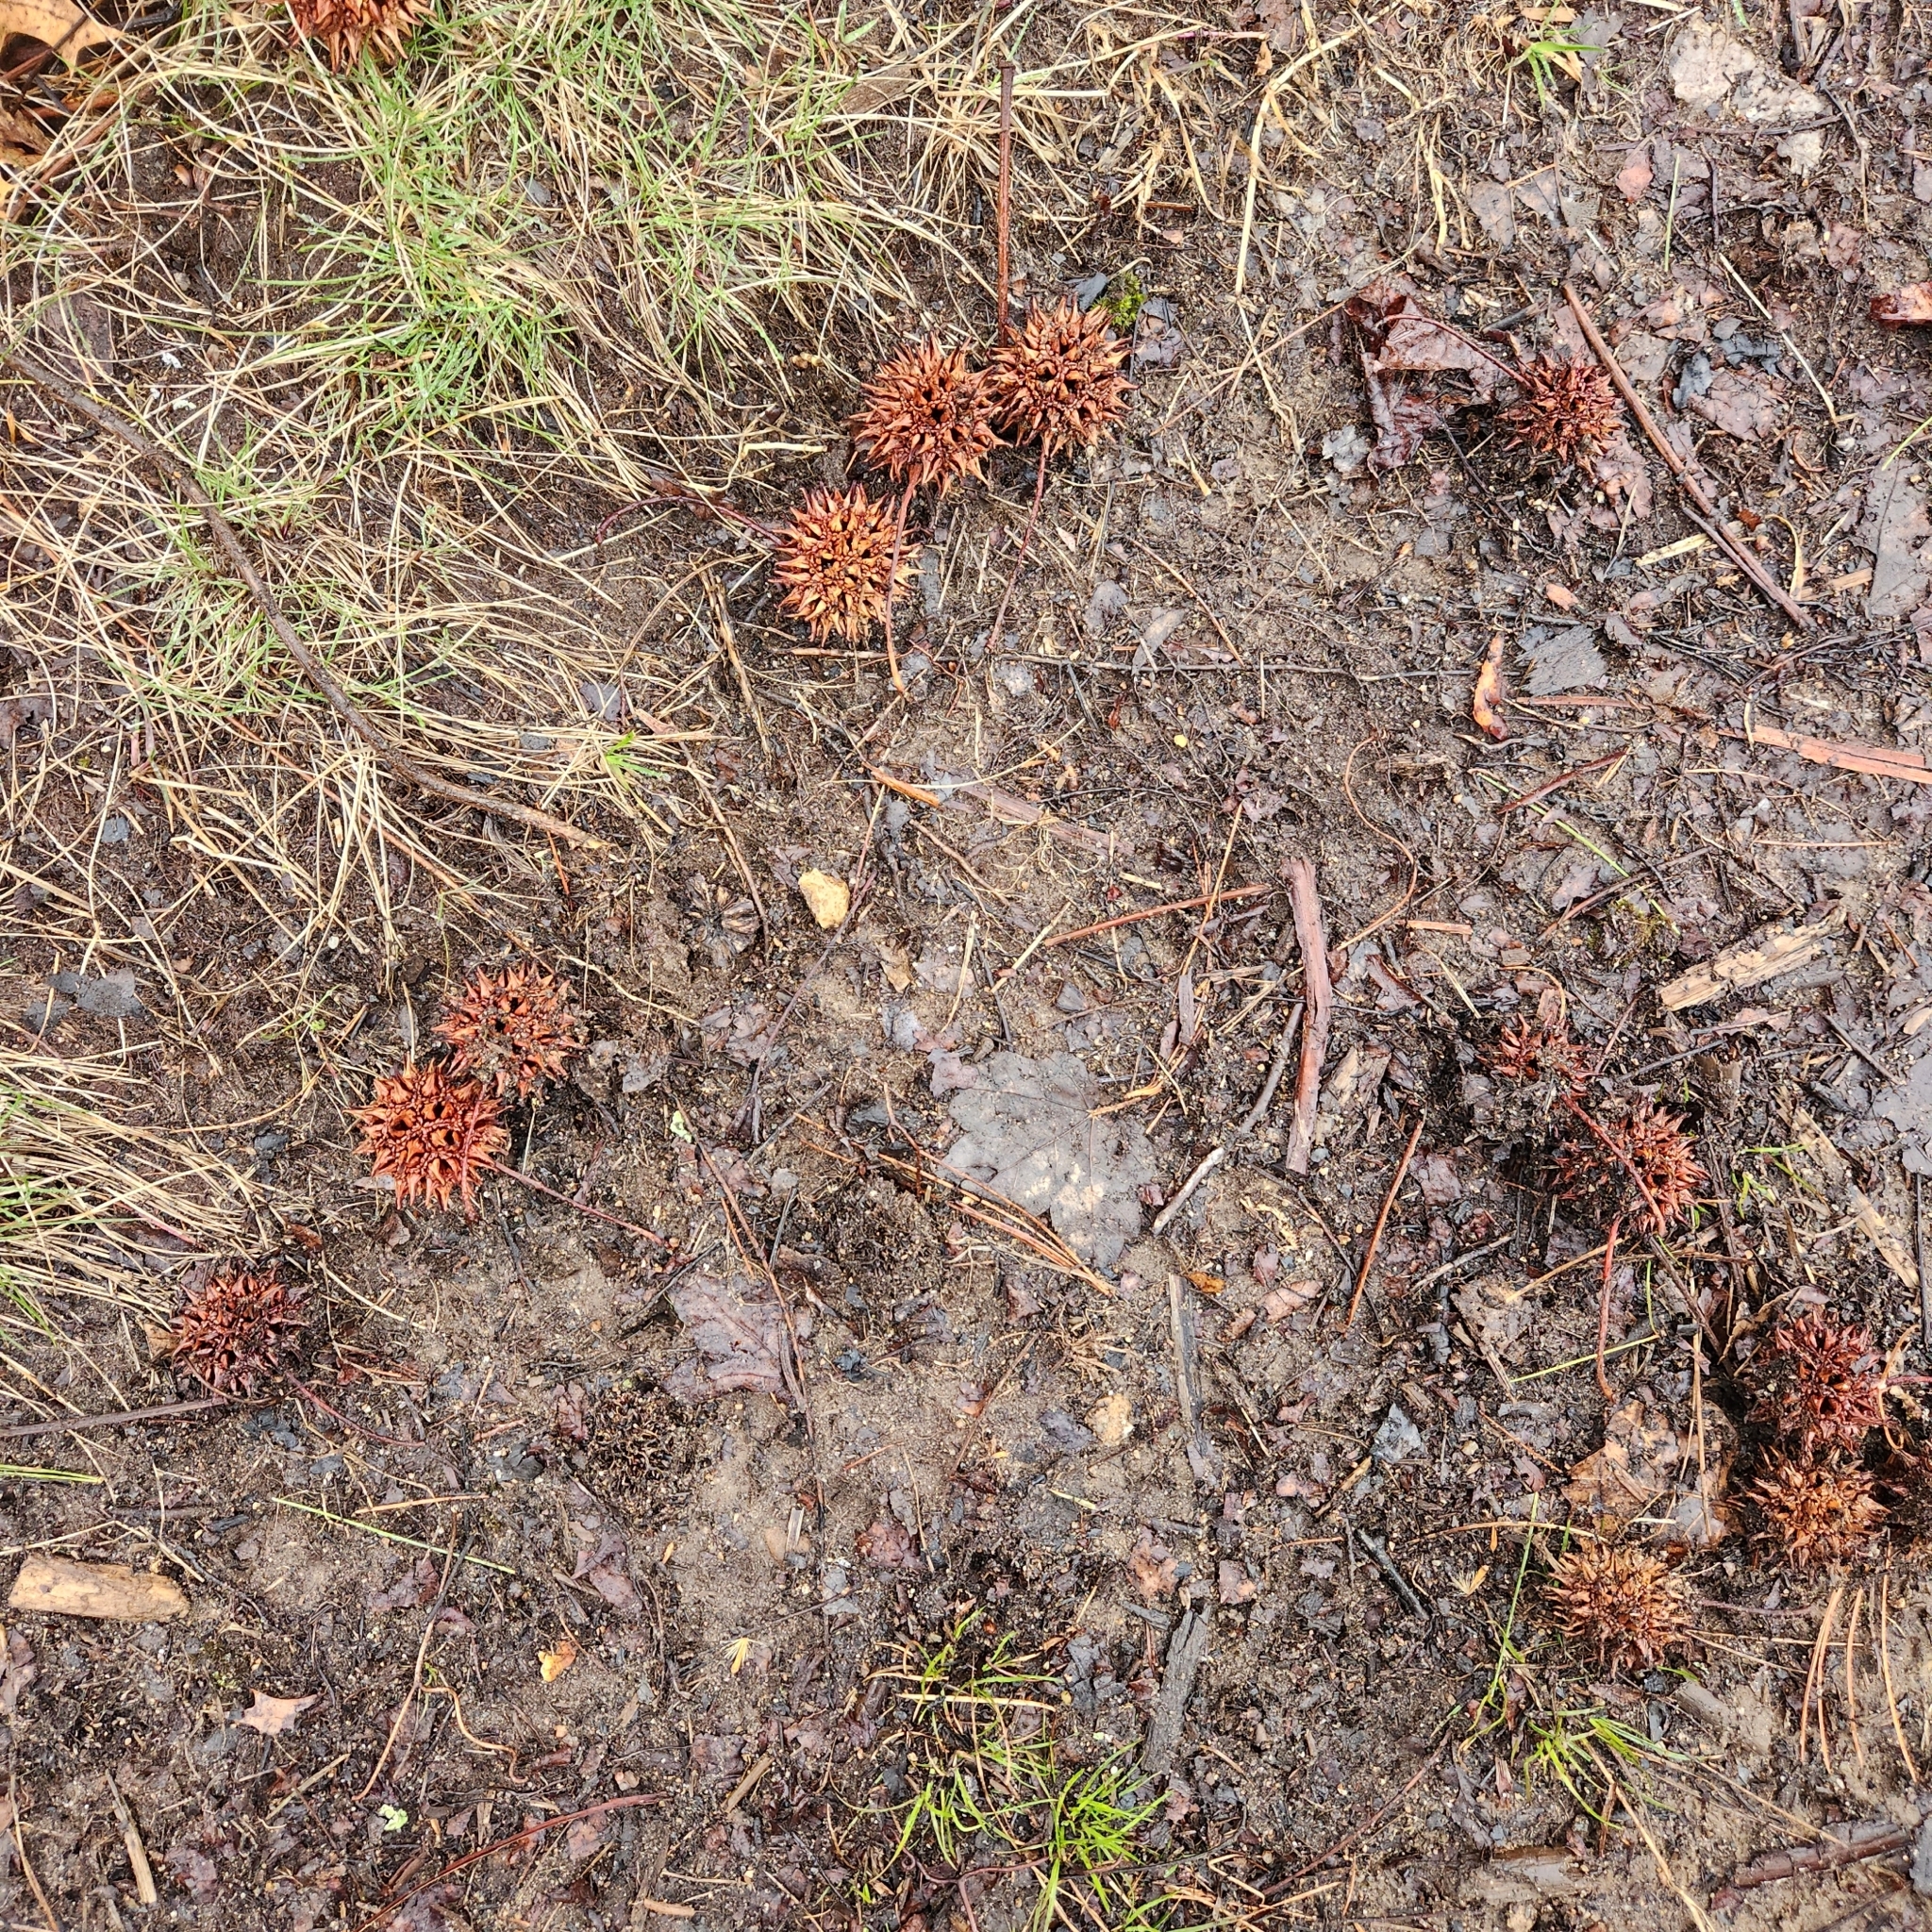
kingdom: Plantae
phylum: Tracheophyta
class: Magnoliopsida
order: Saxifragales
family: Altingiaceae
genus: Liquidambar
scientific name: Liquidambar styraciflua
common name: Sweet gum
